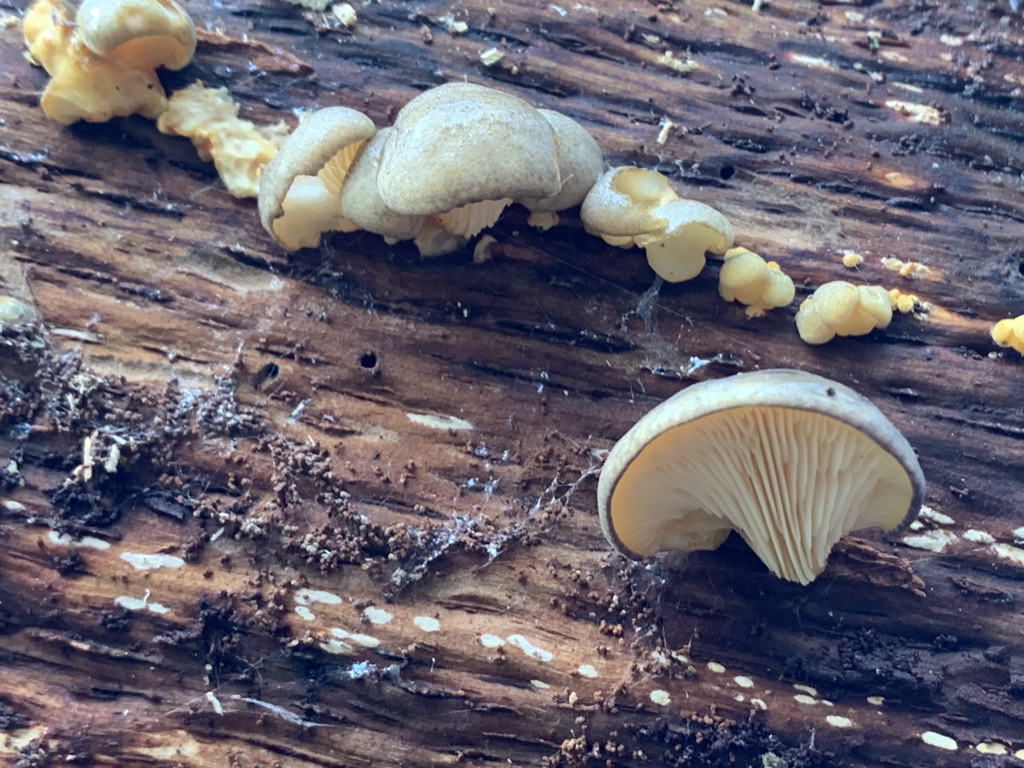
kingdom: Fungi
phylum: Basidiomycota
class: Agaricomycetes
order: Agaricales
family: Sarcomyxaceae
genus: Sarcomyxa
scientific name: Sarcomyxa serotina
